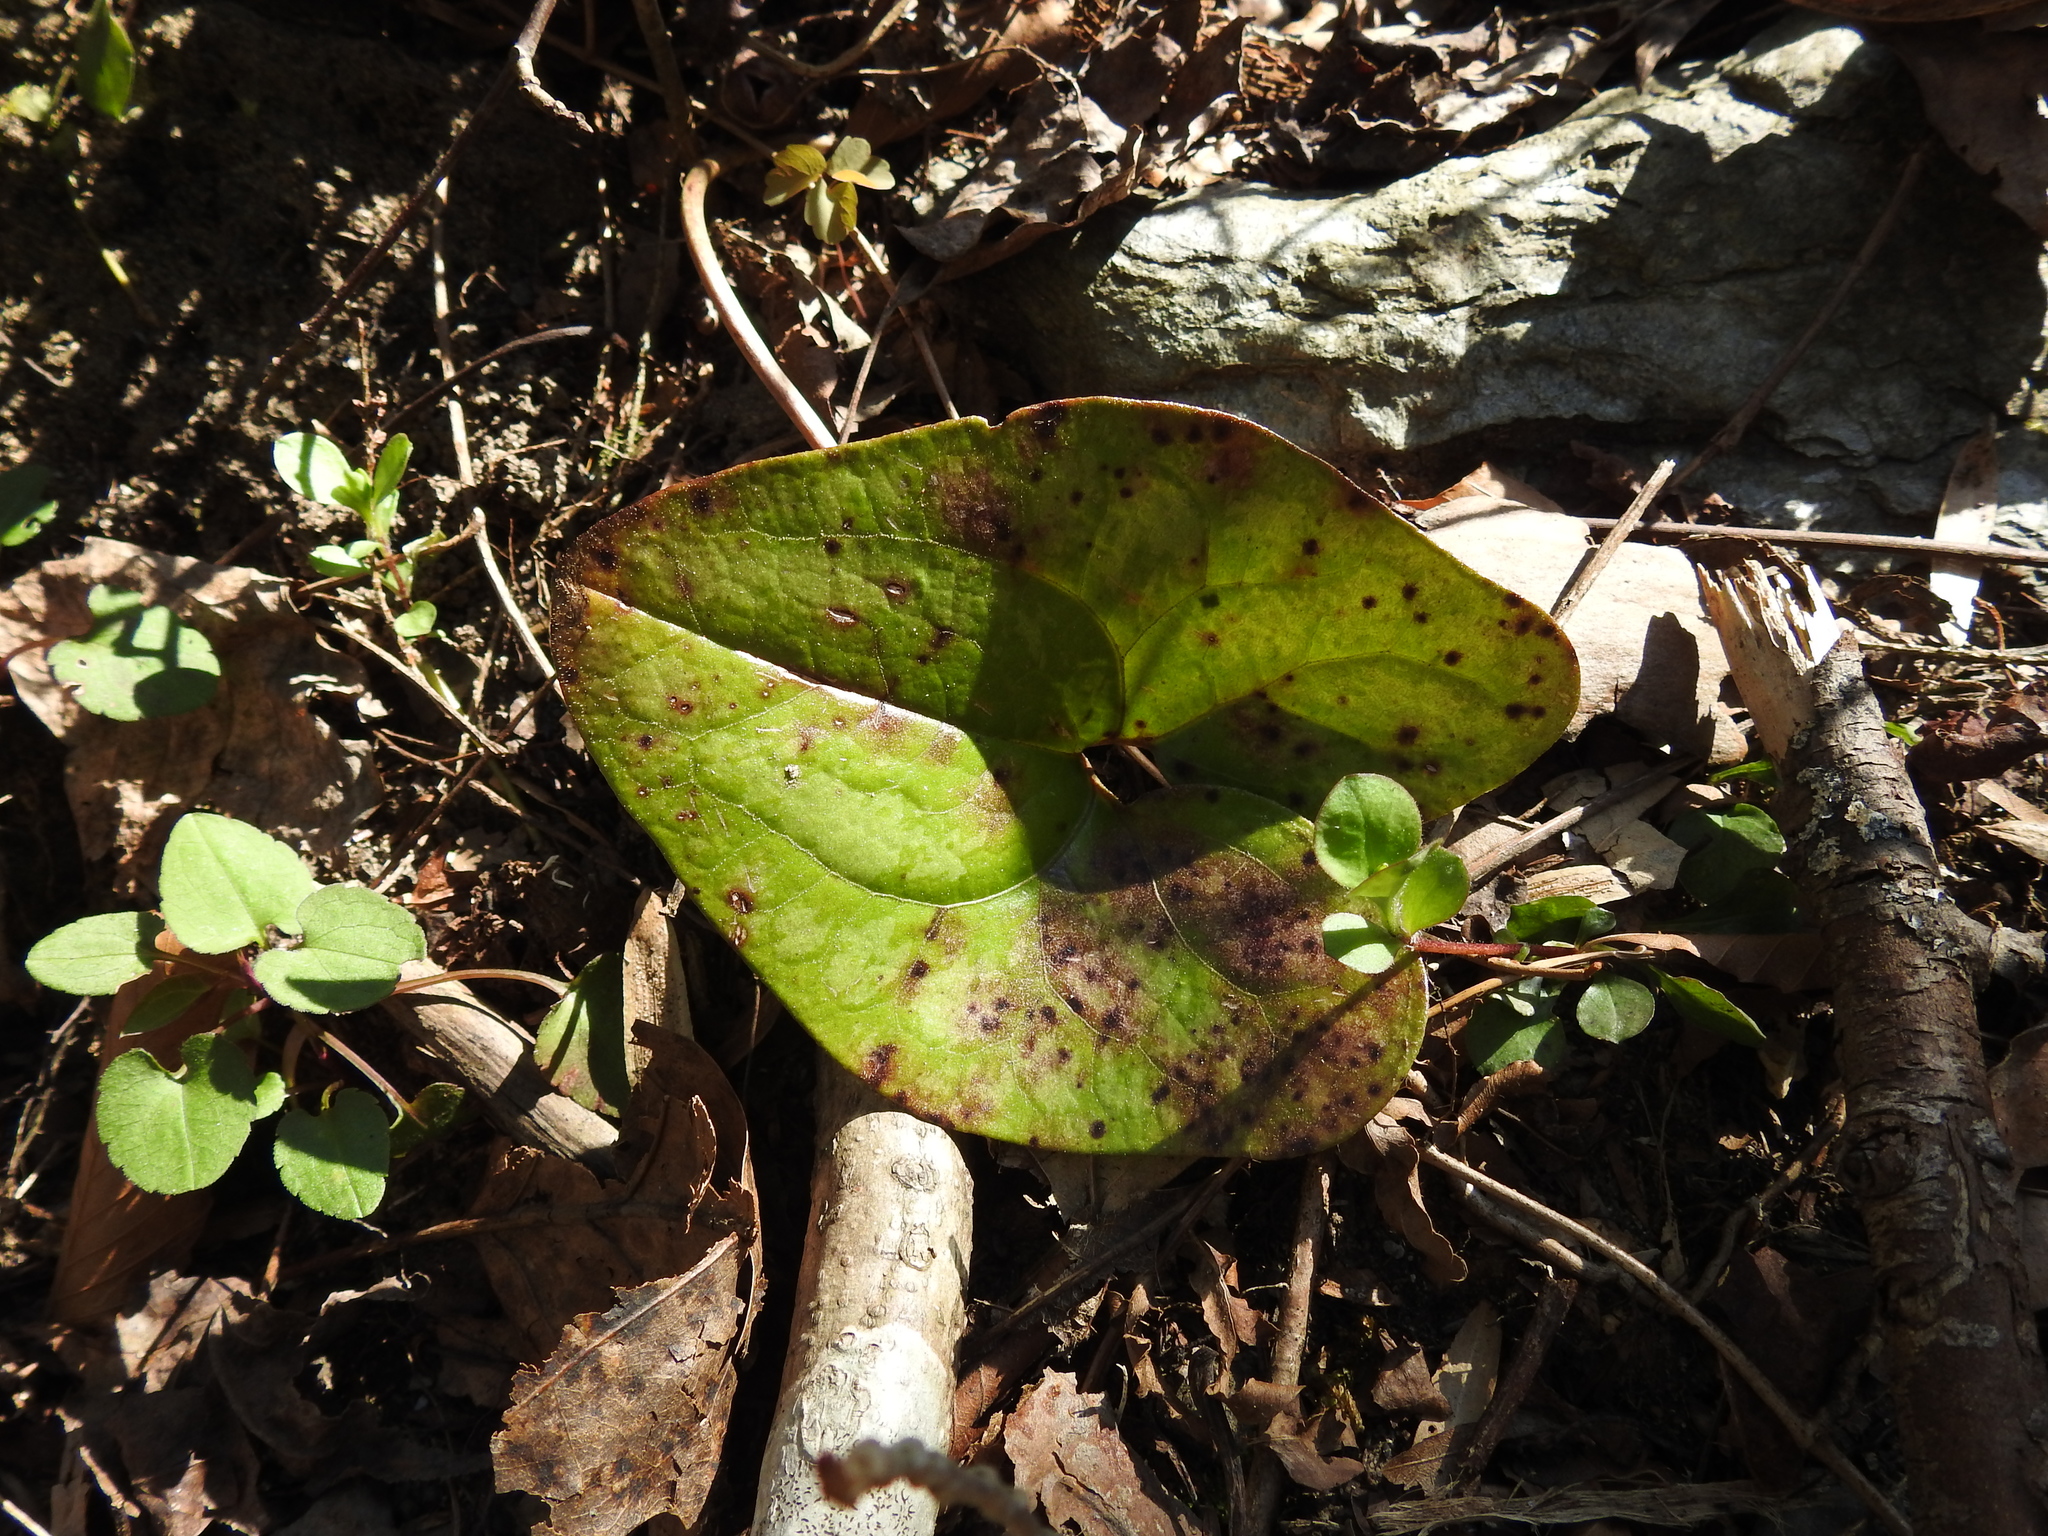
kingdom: Plantae
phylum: Tracheophyta
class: Magnoliopsida
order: Piperales
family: Aristolochiaceae
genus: Hexastylis
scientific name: Hexastylis arifolia
